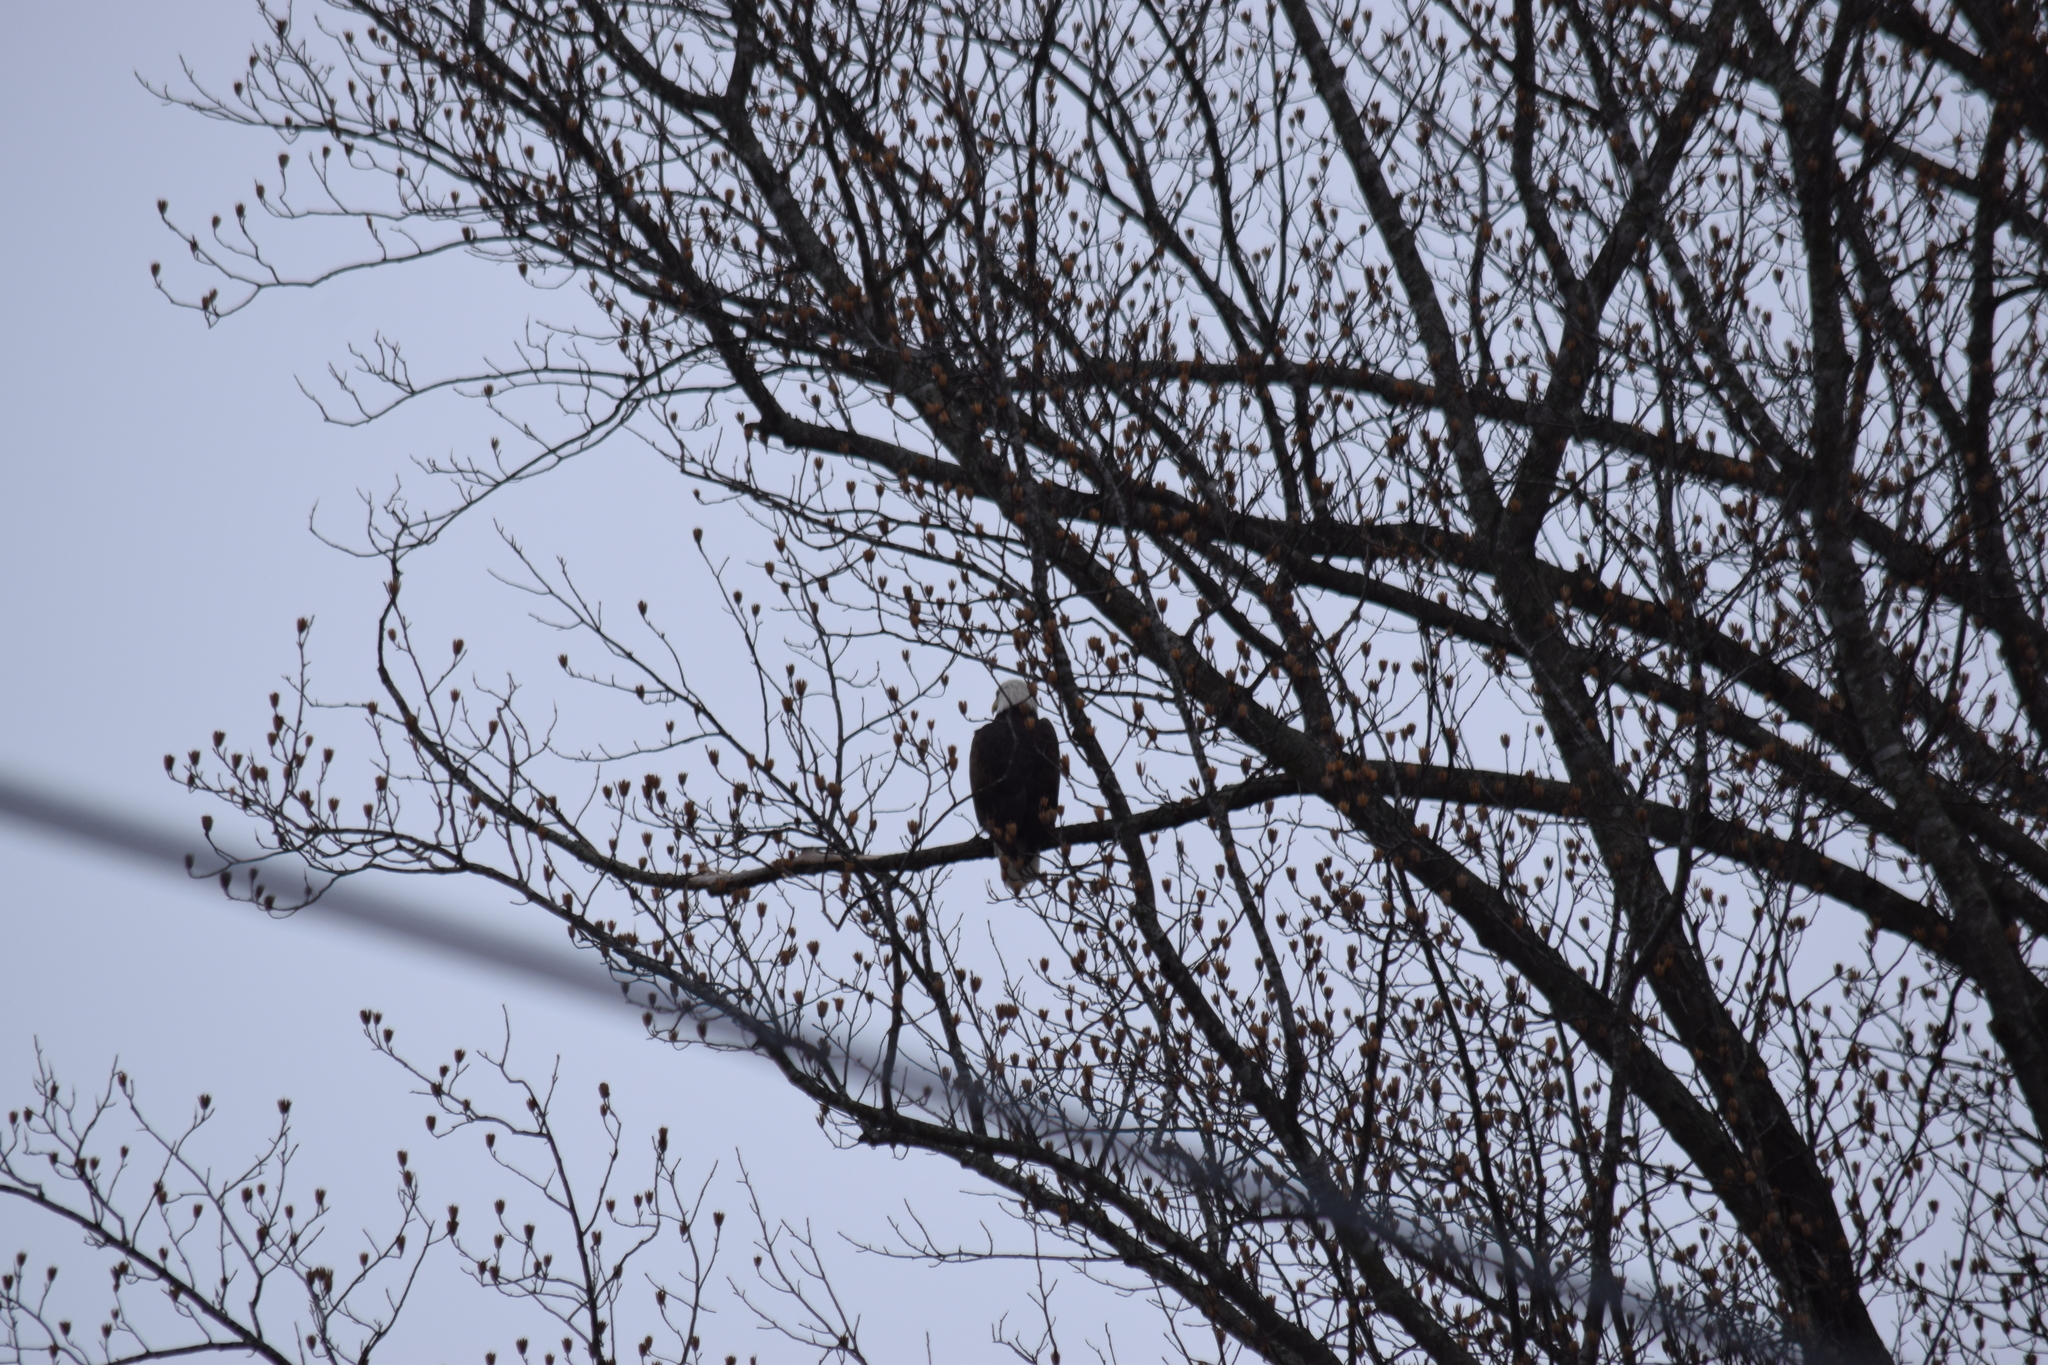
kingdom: Animalia
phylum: Chordata
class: Aves
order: Accipitriformes
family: Accipitridae
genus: Haliaeetus
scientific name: Haliaeetus leucocephalus
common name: Bald eagle
